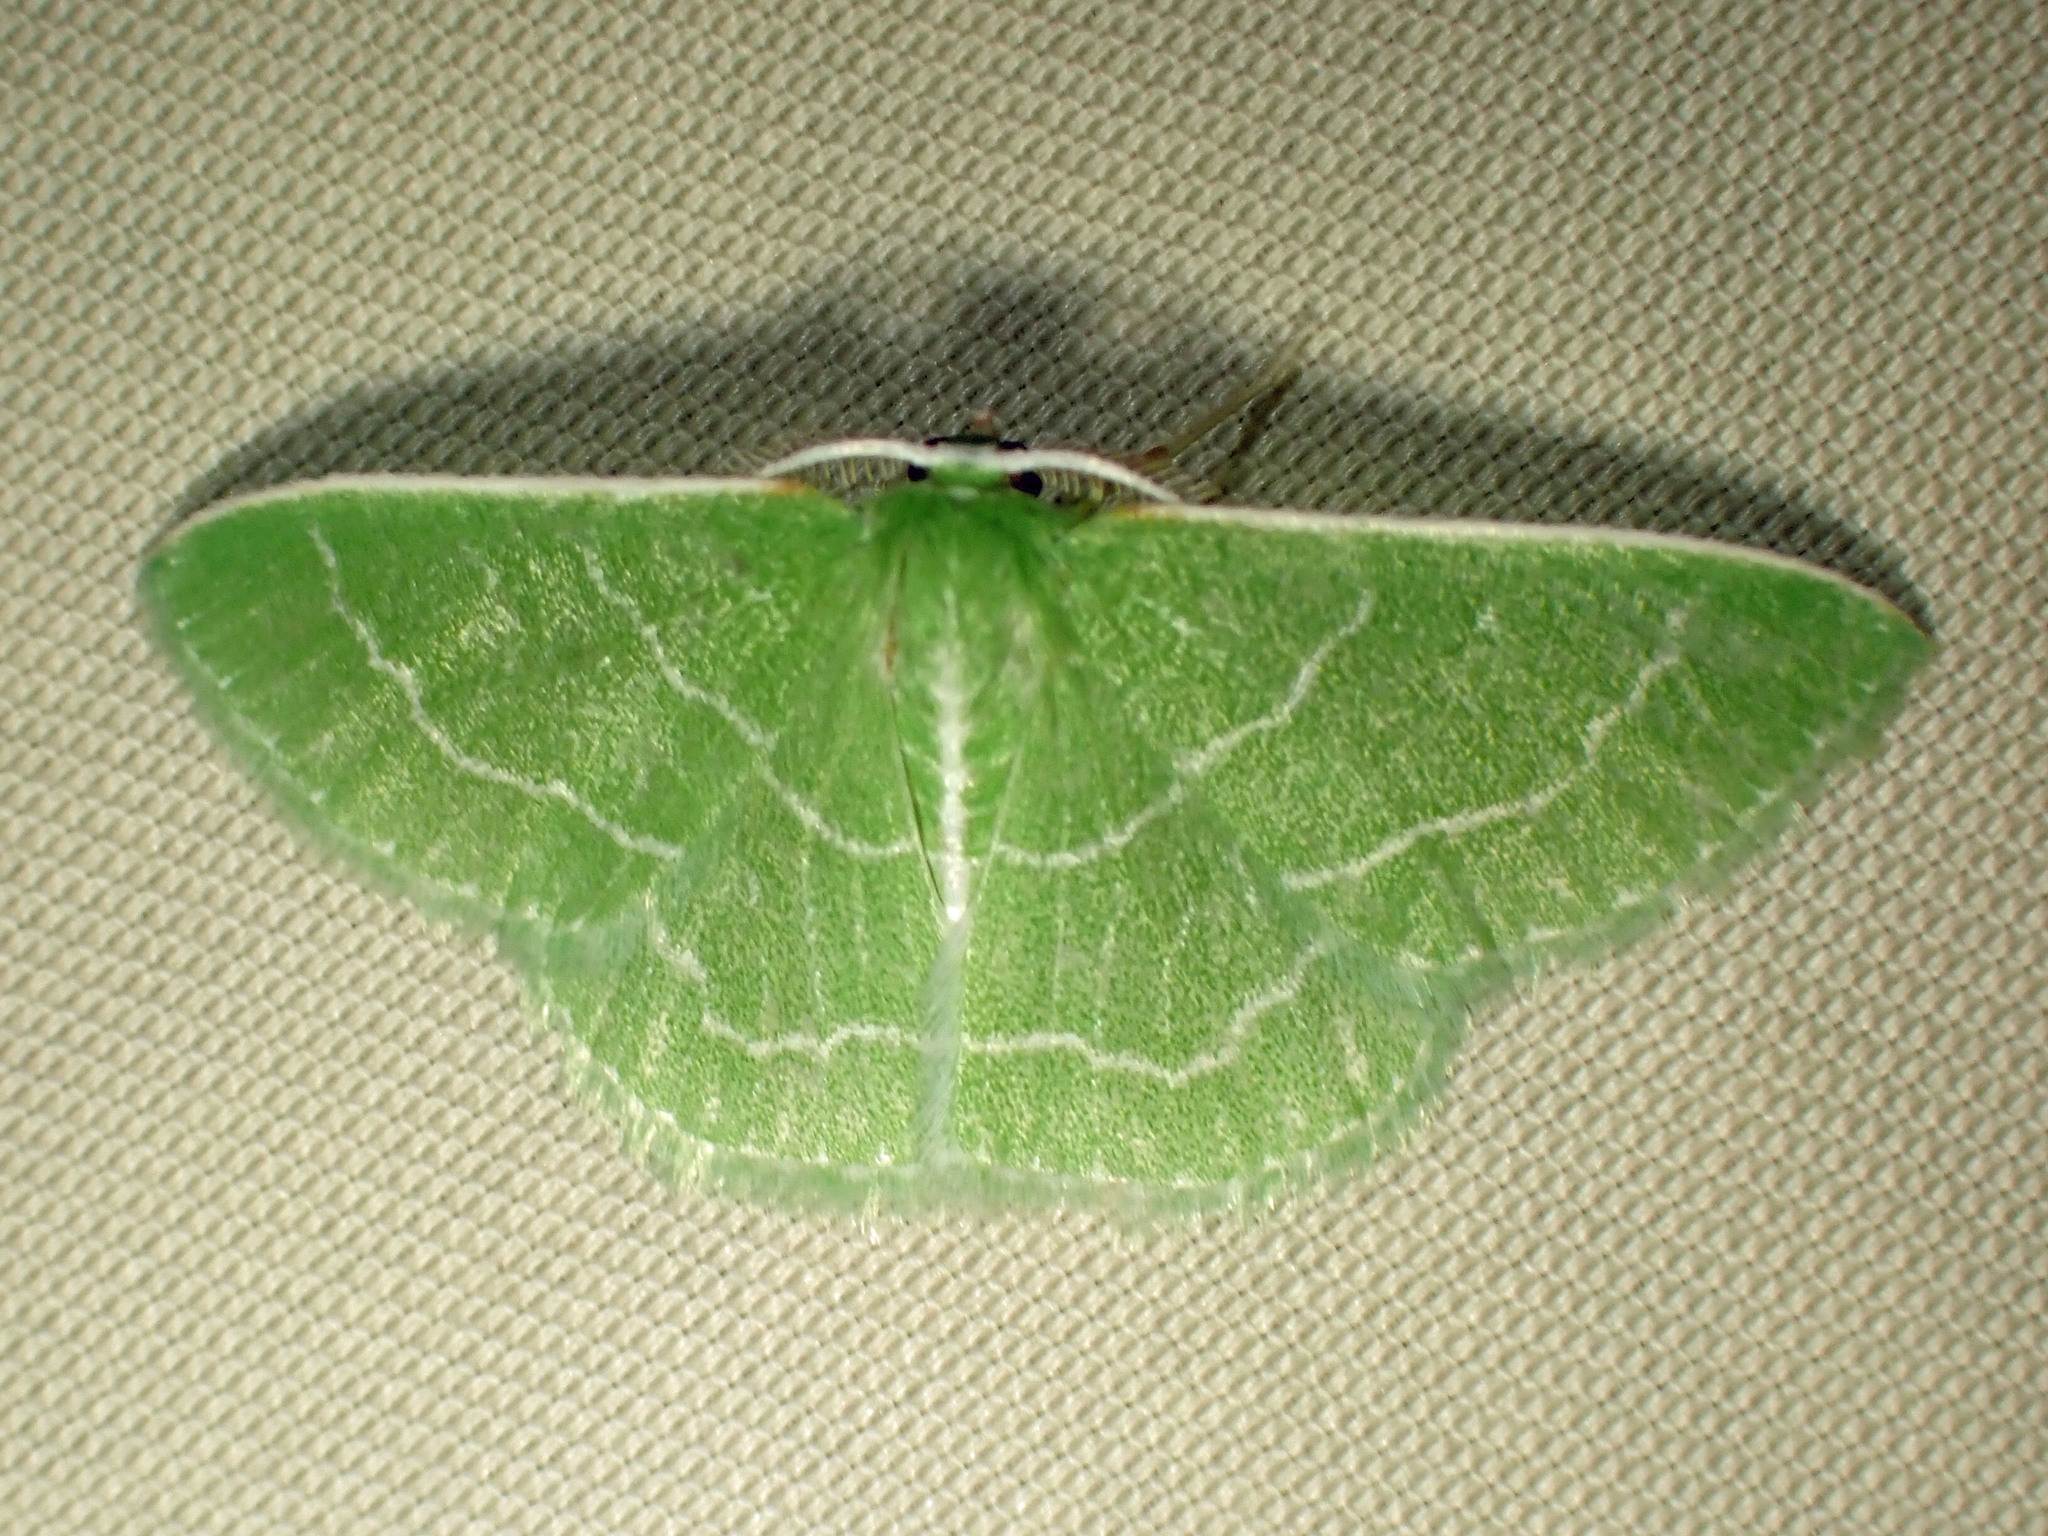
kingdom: Animalia
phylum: Arthropoda
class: Insecta
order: Lepidoptera
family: Geometridae
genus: Synchlora
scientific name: Synchlora aerata
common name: Wavy-lined emerald
